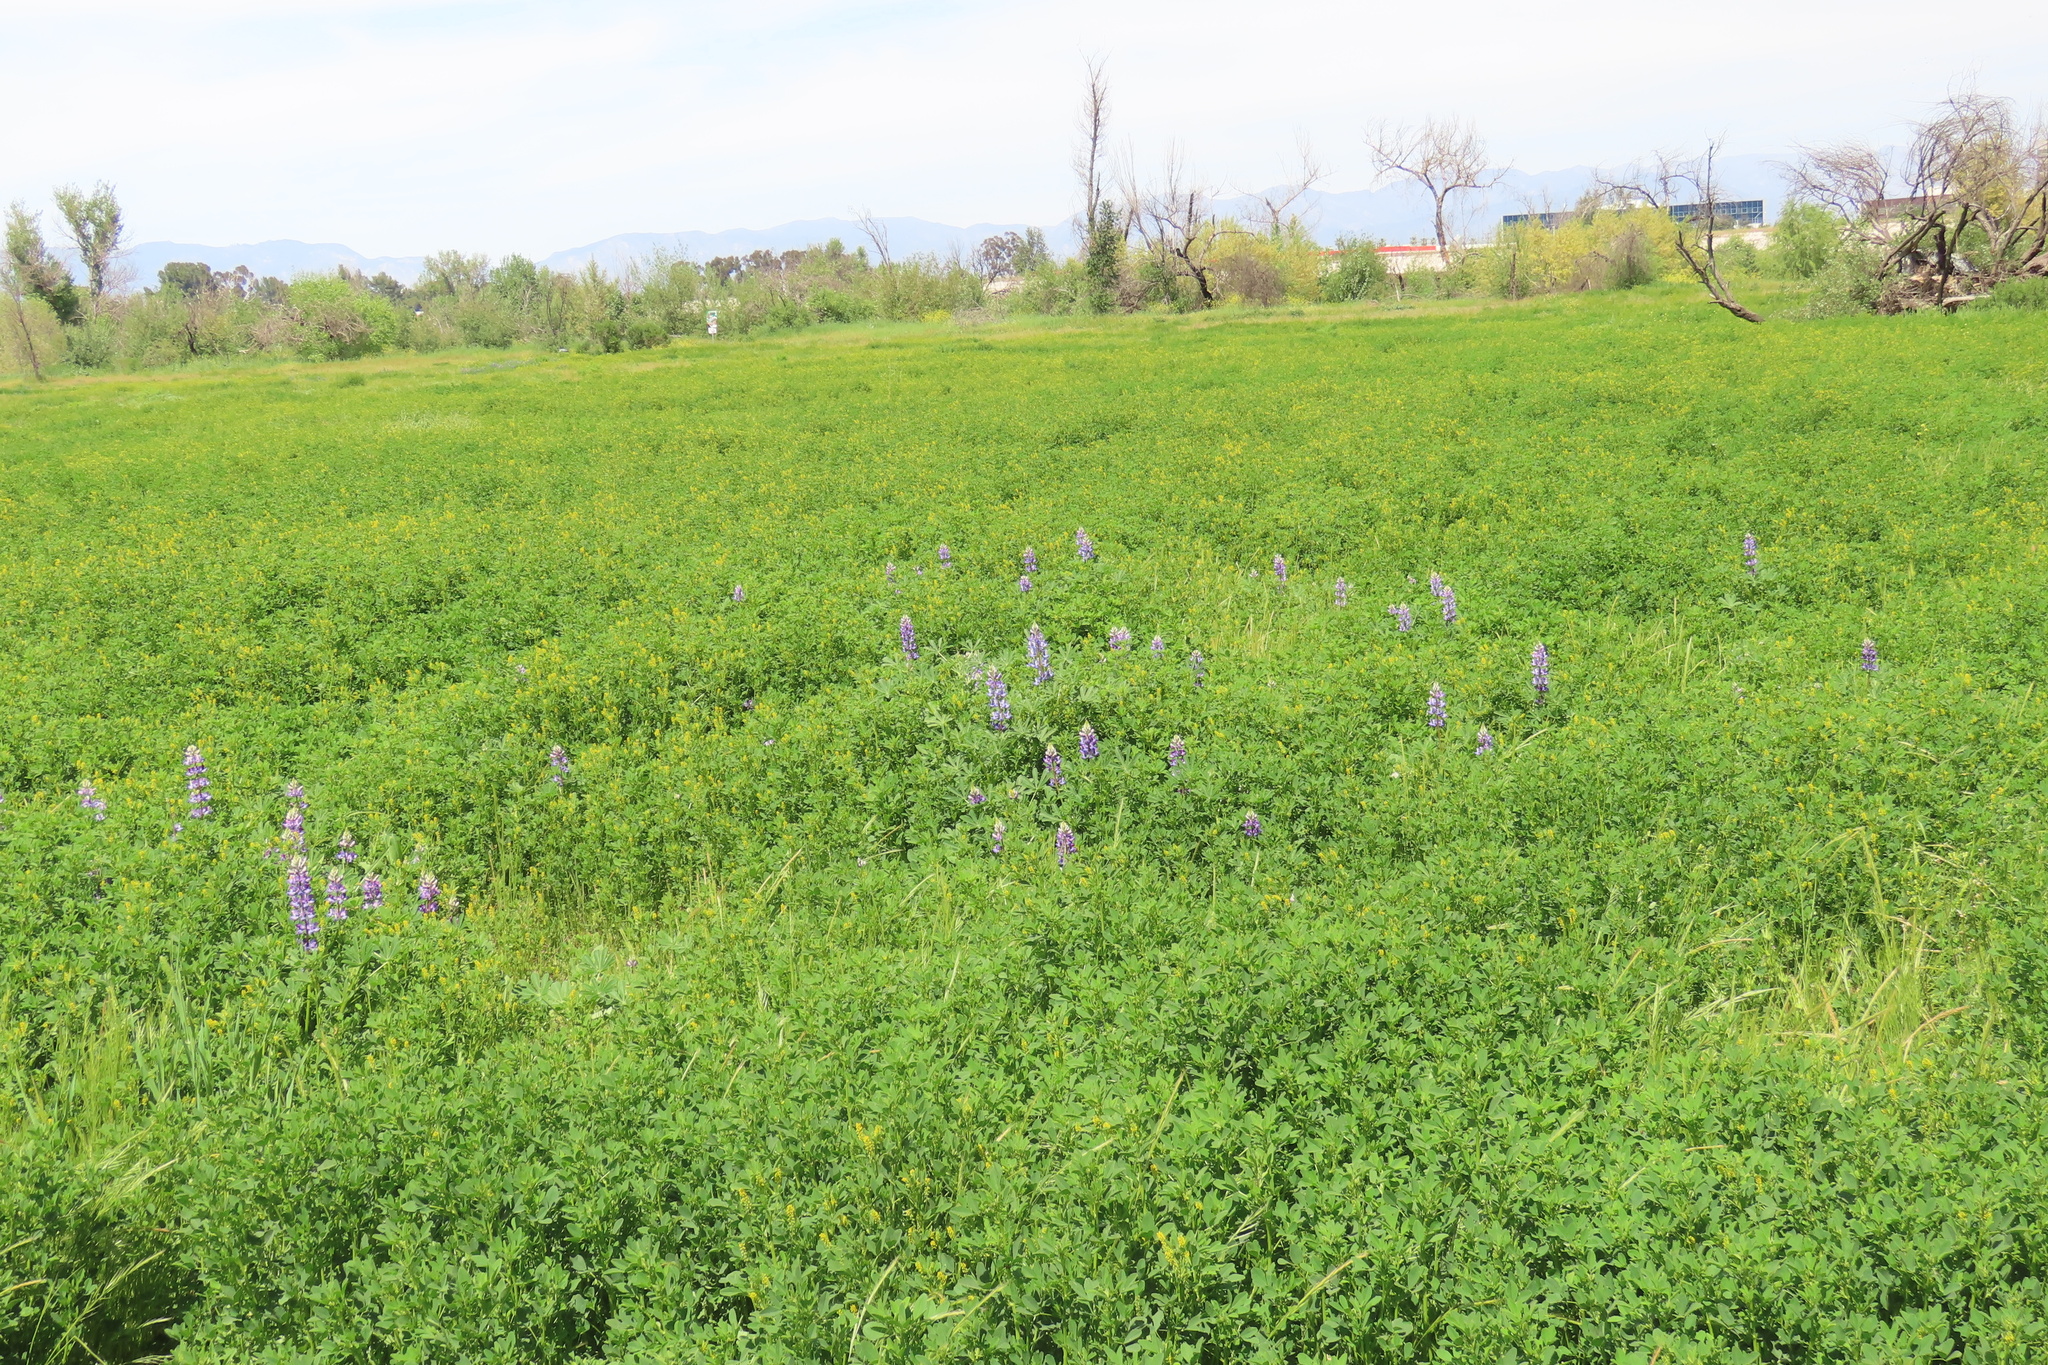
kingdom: Plantae
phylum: Tracheophyta
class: Magnoliopsida
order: Fabales
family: Fabaceae
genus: Lupinus
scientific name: Lupinus succulentus
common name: Arroyo lupine
